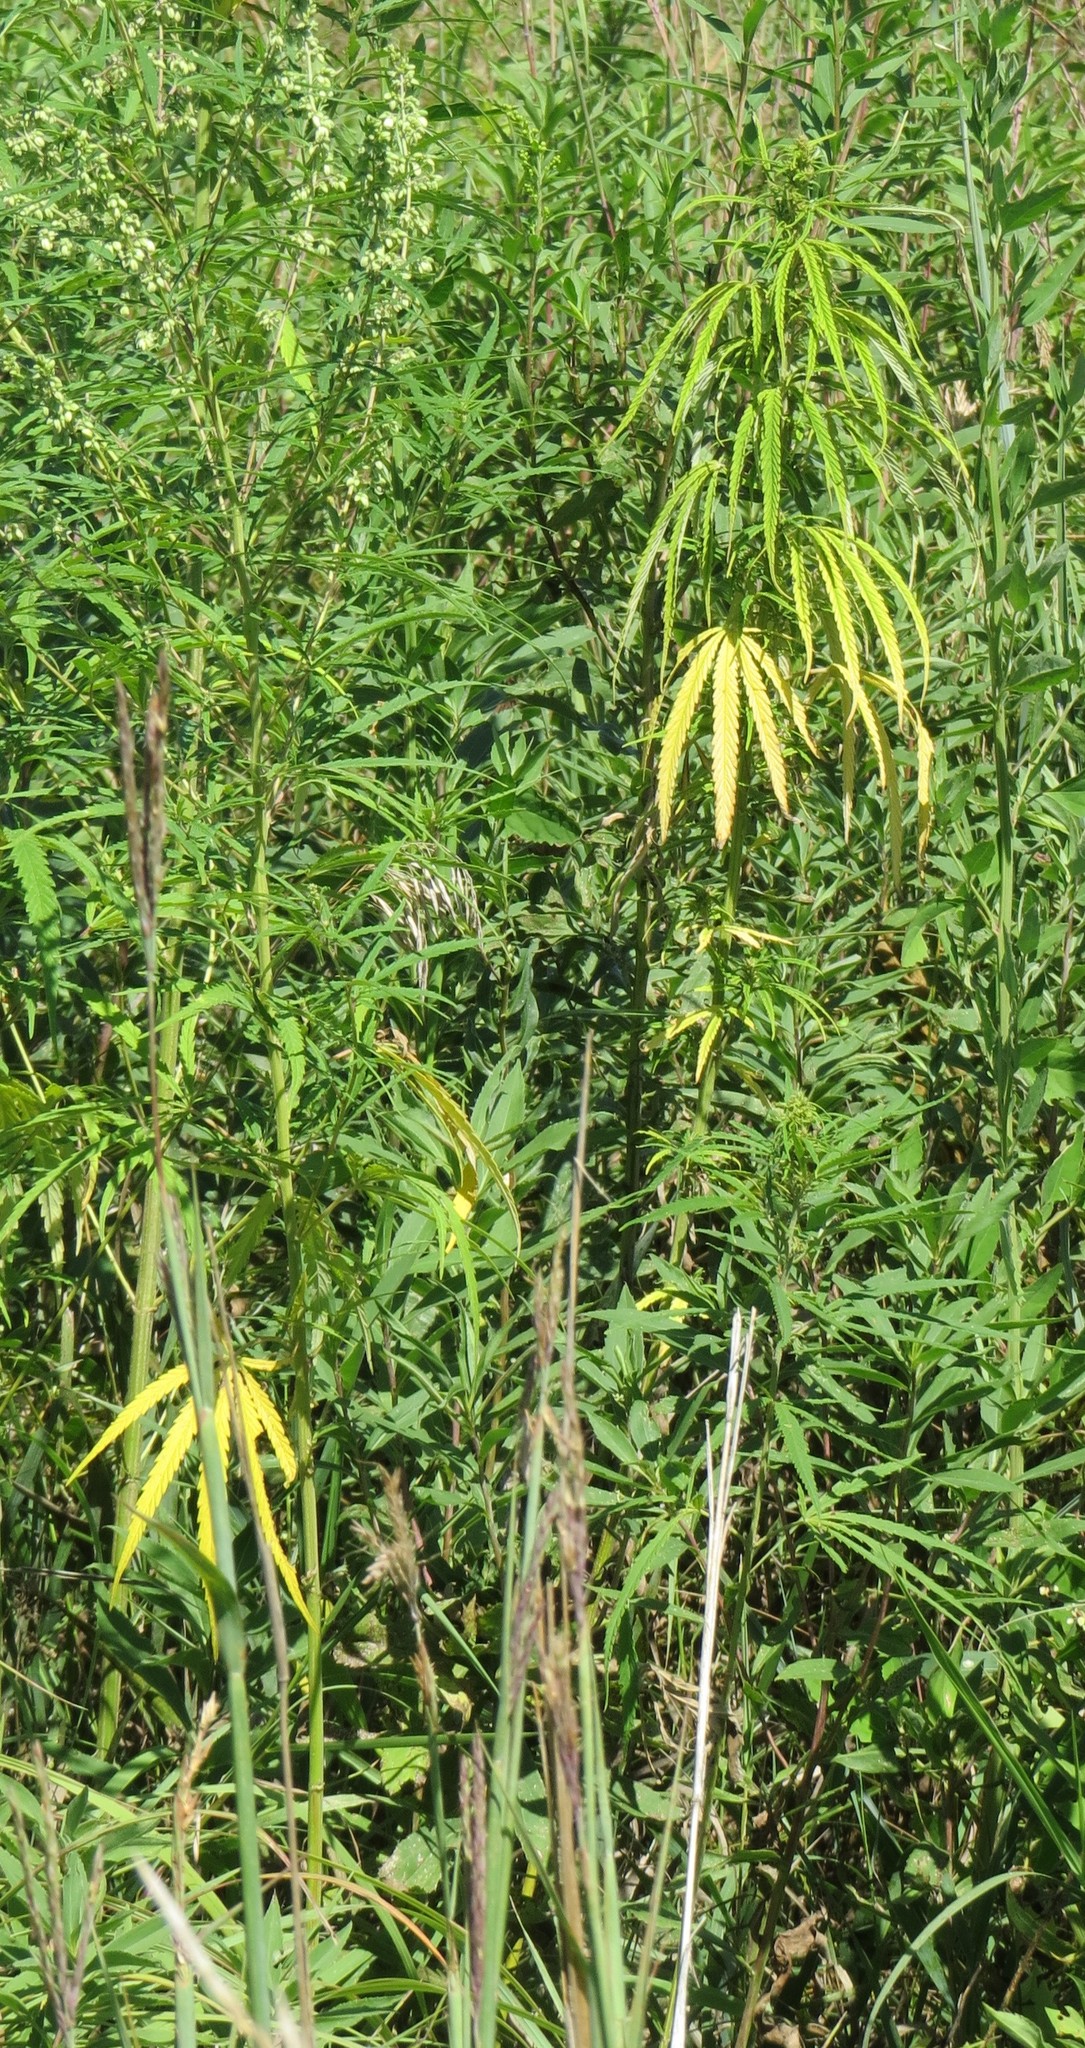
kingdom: Plantae
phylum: Tracheophyta
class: Magnoliopsida
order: Rosales
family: Cannabaceae
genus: Cannabis
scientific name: Cannabis sativa
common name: Hemp
